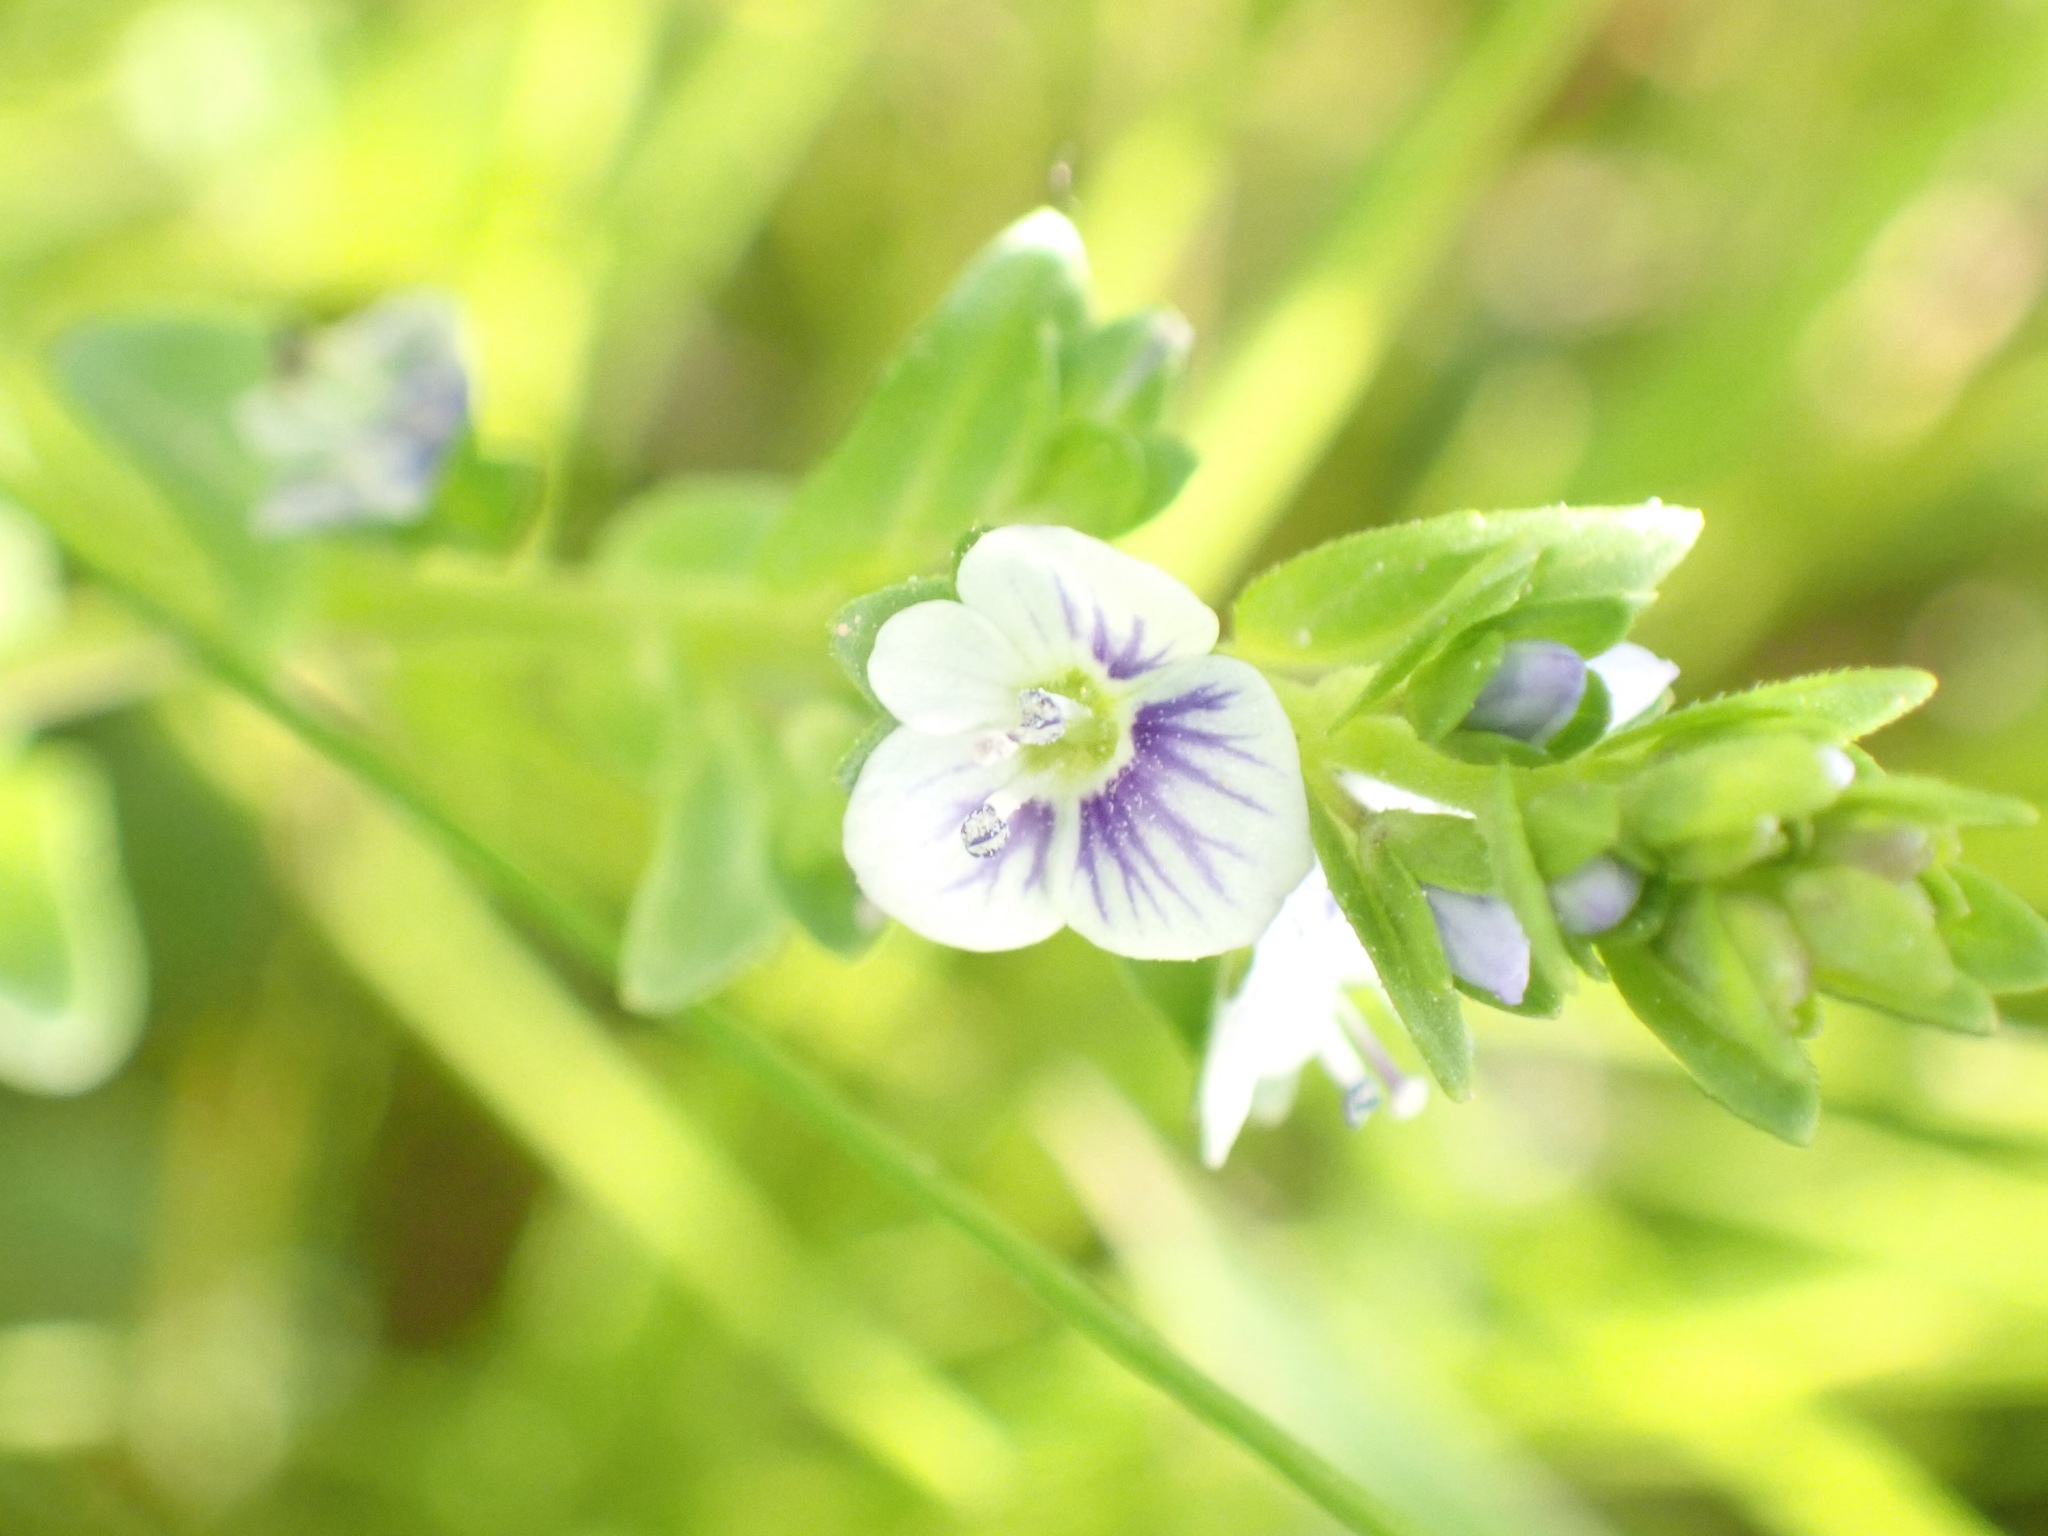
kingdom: Plantae
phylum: Tracheophyta
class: Magnoliopsida
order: Lamiales
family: Plantaginaceae
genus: Veronica
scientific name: Veronica serpyllifolia
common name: Thyme-leaved speedwell
